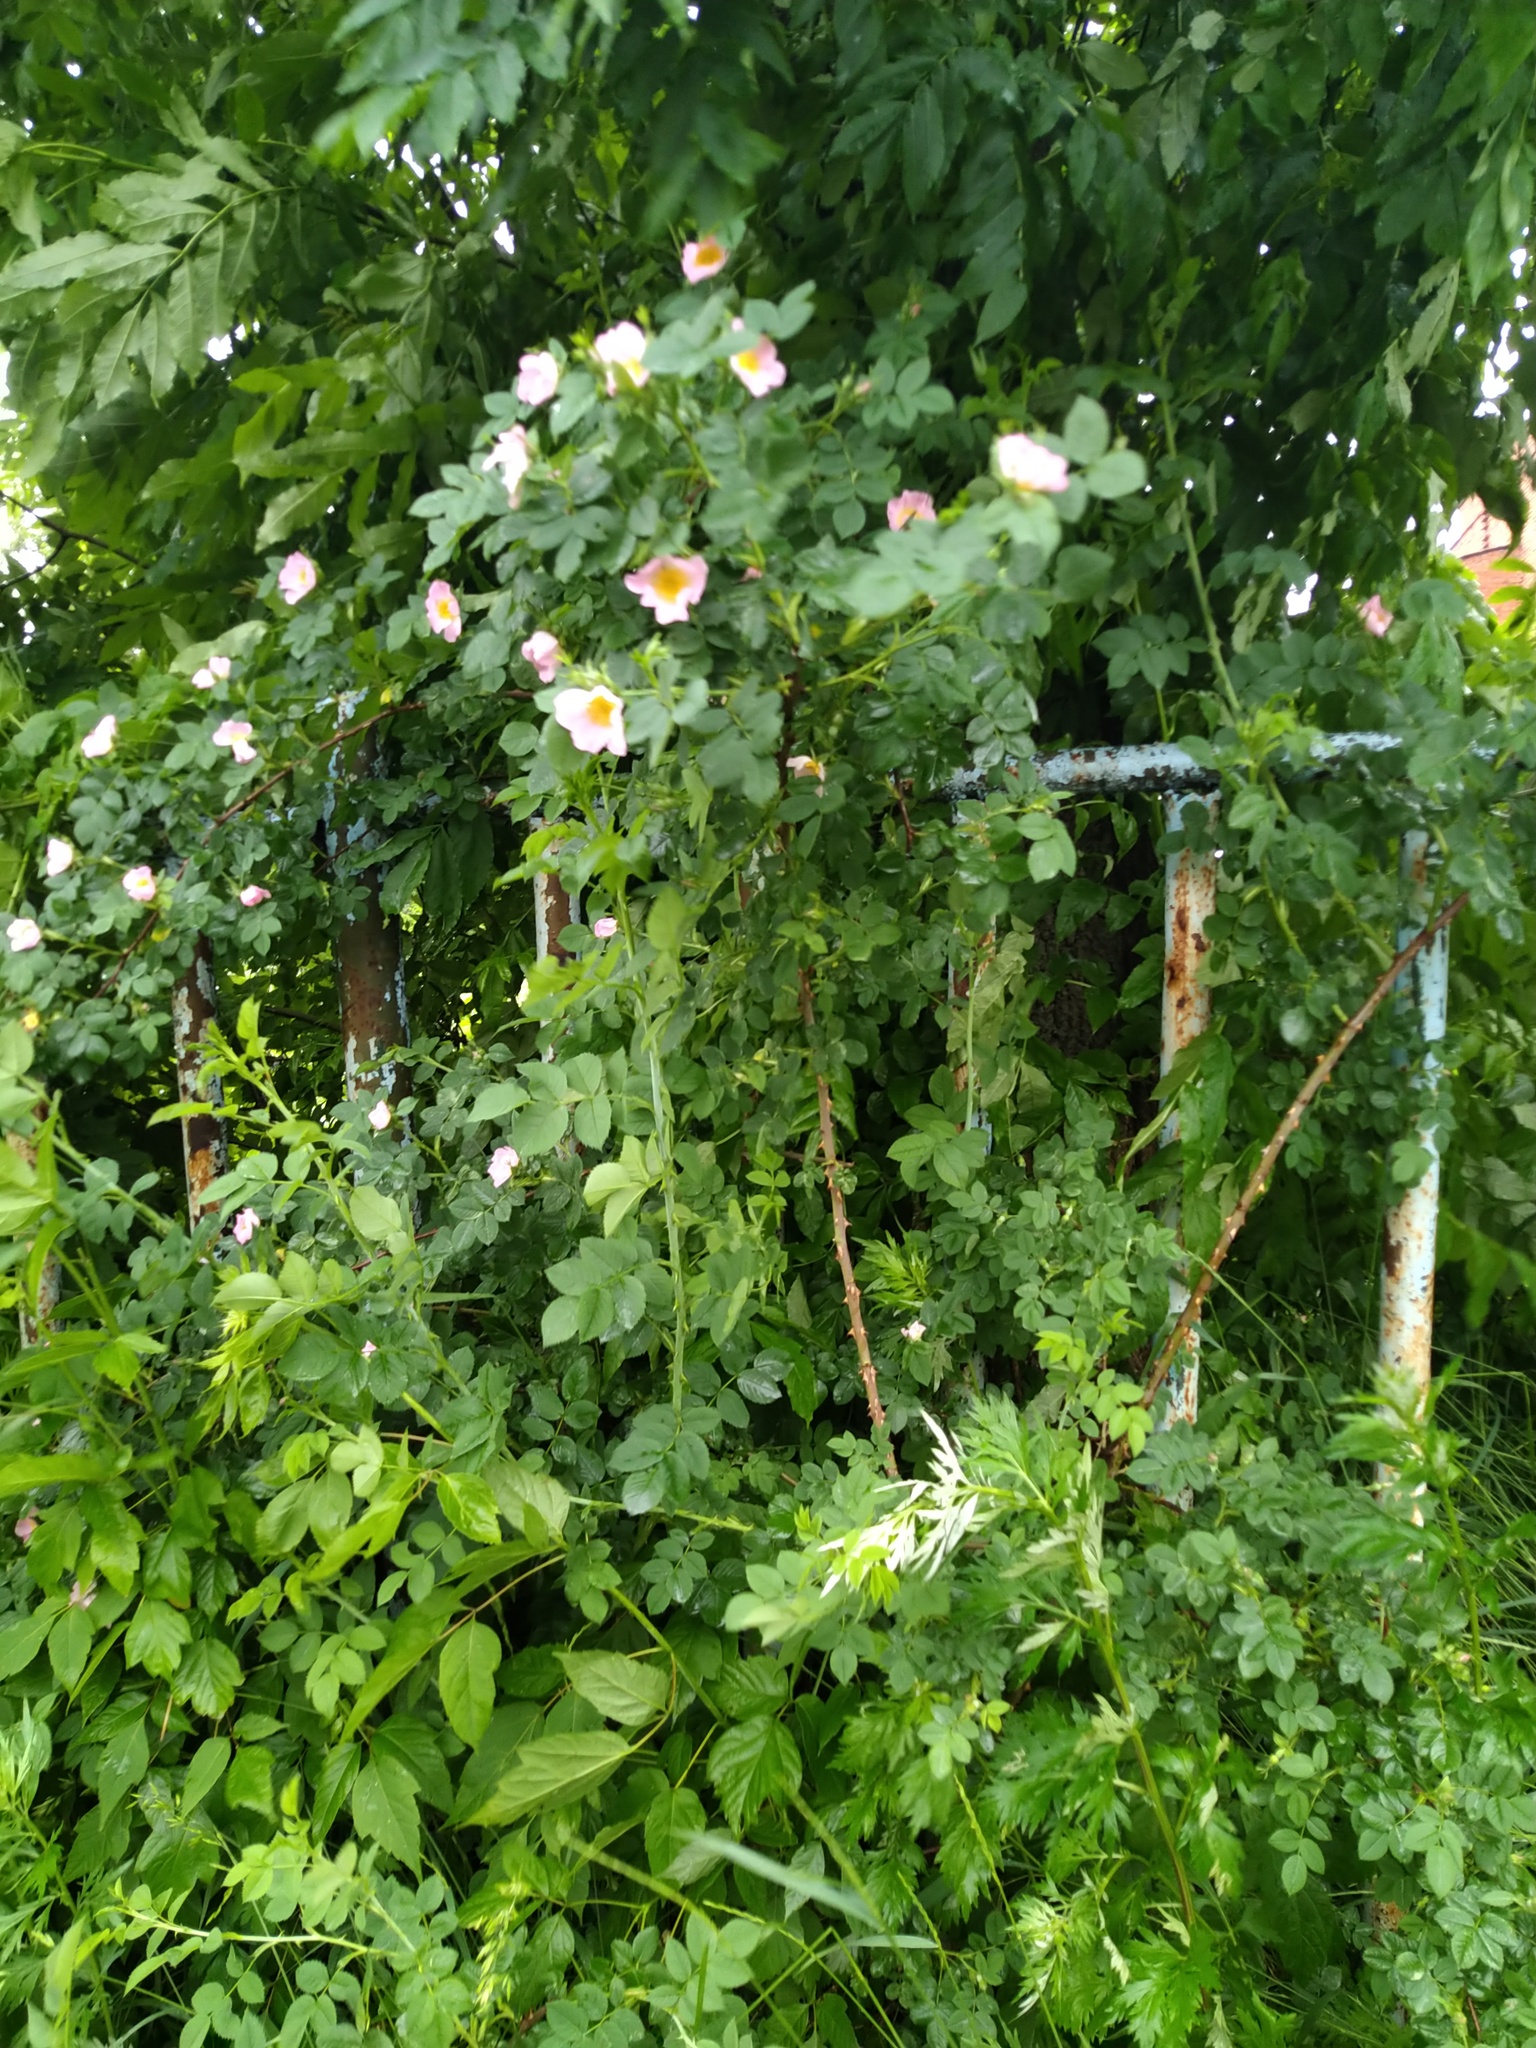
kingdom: Plantae
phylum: Tracheophyta
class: Magnoliopsida
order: Rosales
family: Rosaceae
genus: Rosa
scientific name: Rosa
